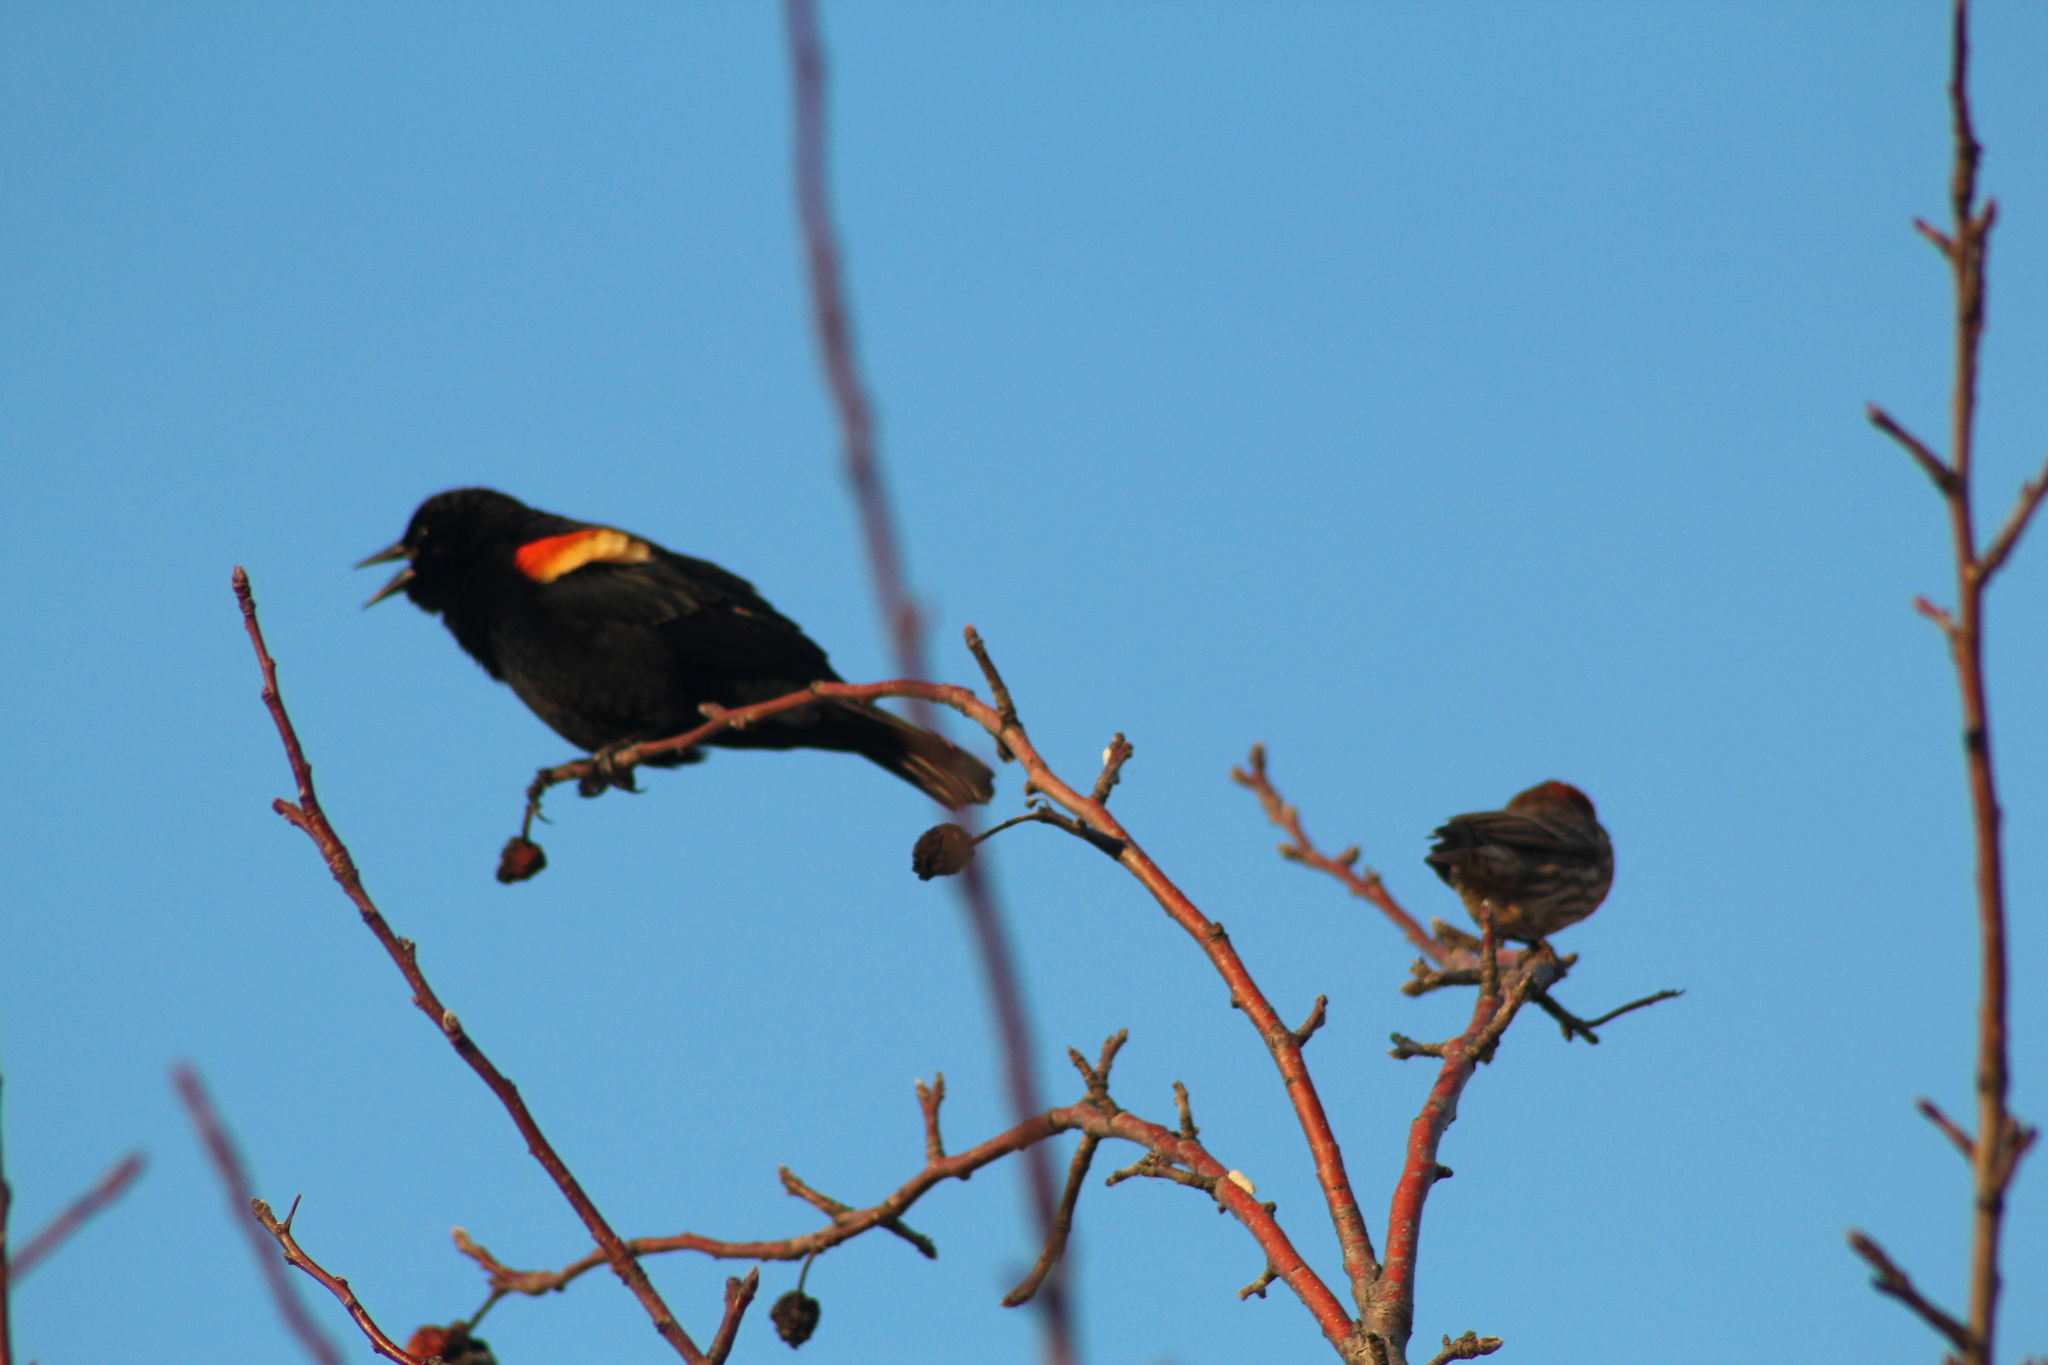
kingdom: Animalia
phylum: Chordata
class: Aves
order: Passeriformes
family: Icteridae
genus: Agelaius
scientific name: Agelaius phoeniceus
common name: Red-winged blackbird
